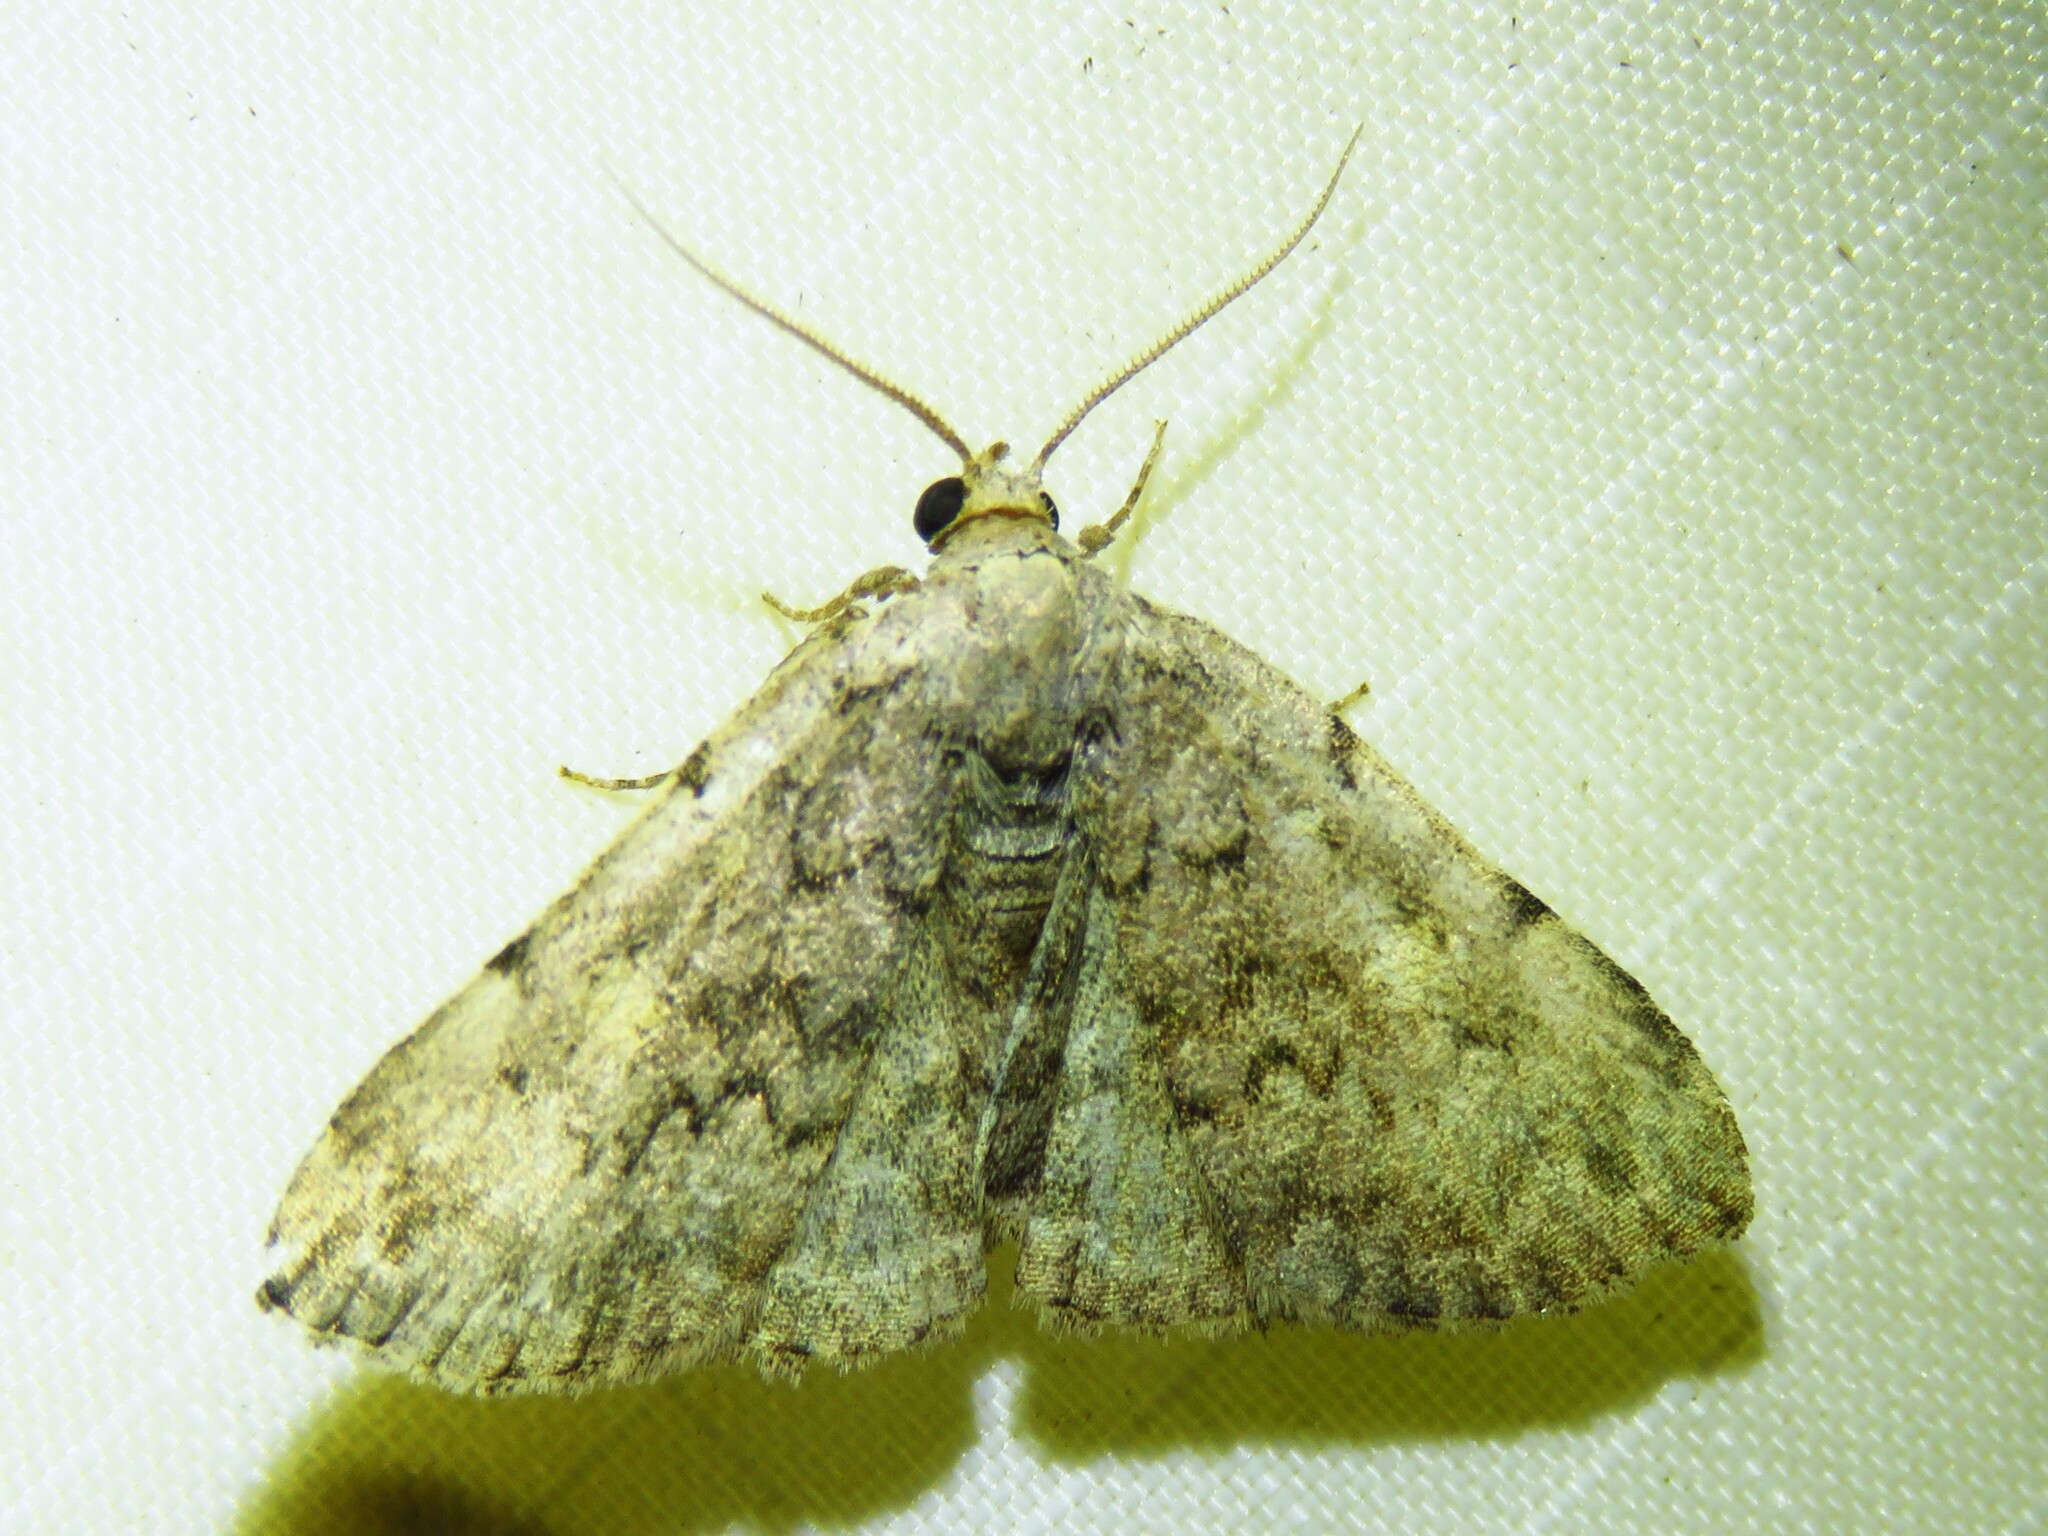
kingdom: Animalia
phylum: Arthropoda
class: Insecta
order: Lepidoptera
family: Erebidae
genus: Idia
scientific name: Idia aemula
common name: Common idia moth
